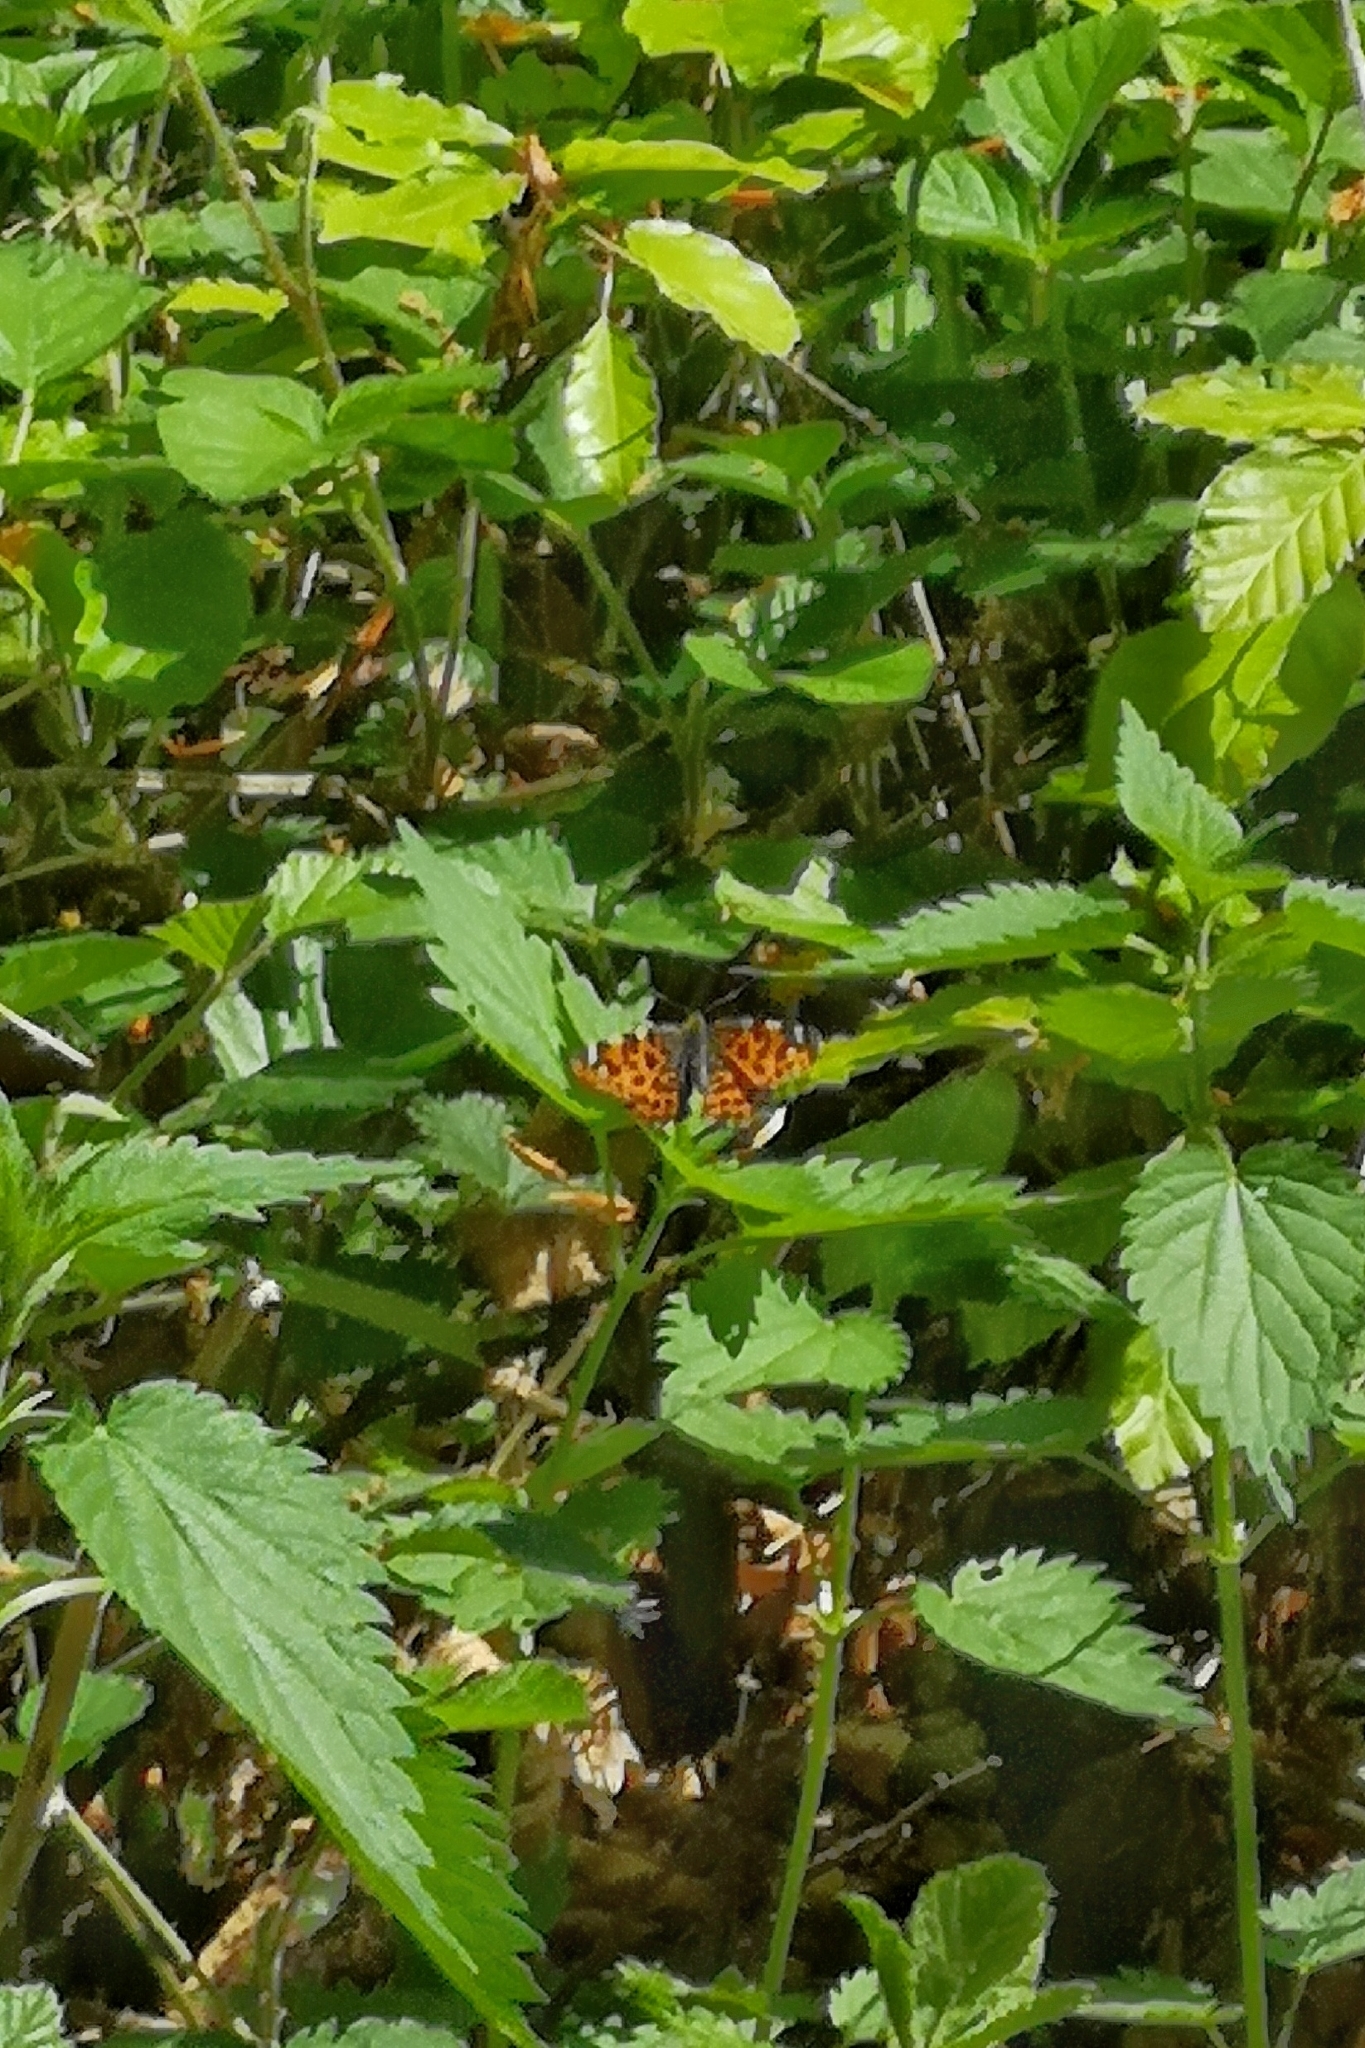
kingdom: Animalia
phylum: Arthropoda
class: Insecta
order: Lepidoptera
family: Nymphalidae
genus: Araschnia
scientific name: Araschnia levana
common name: Map butterfly
